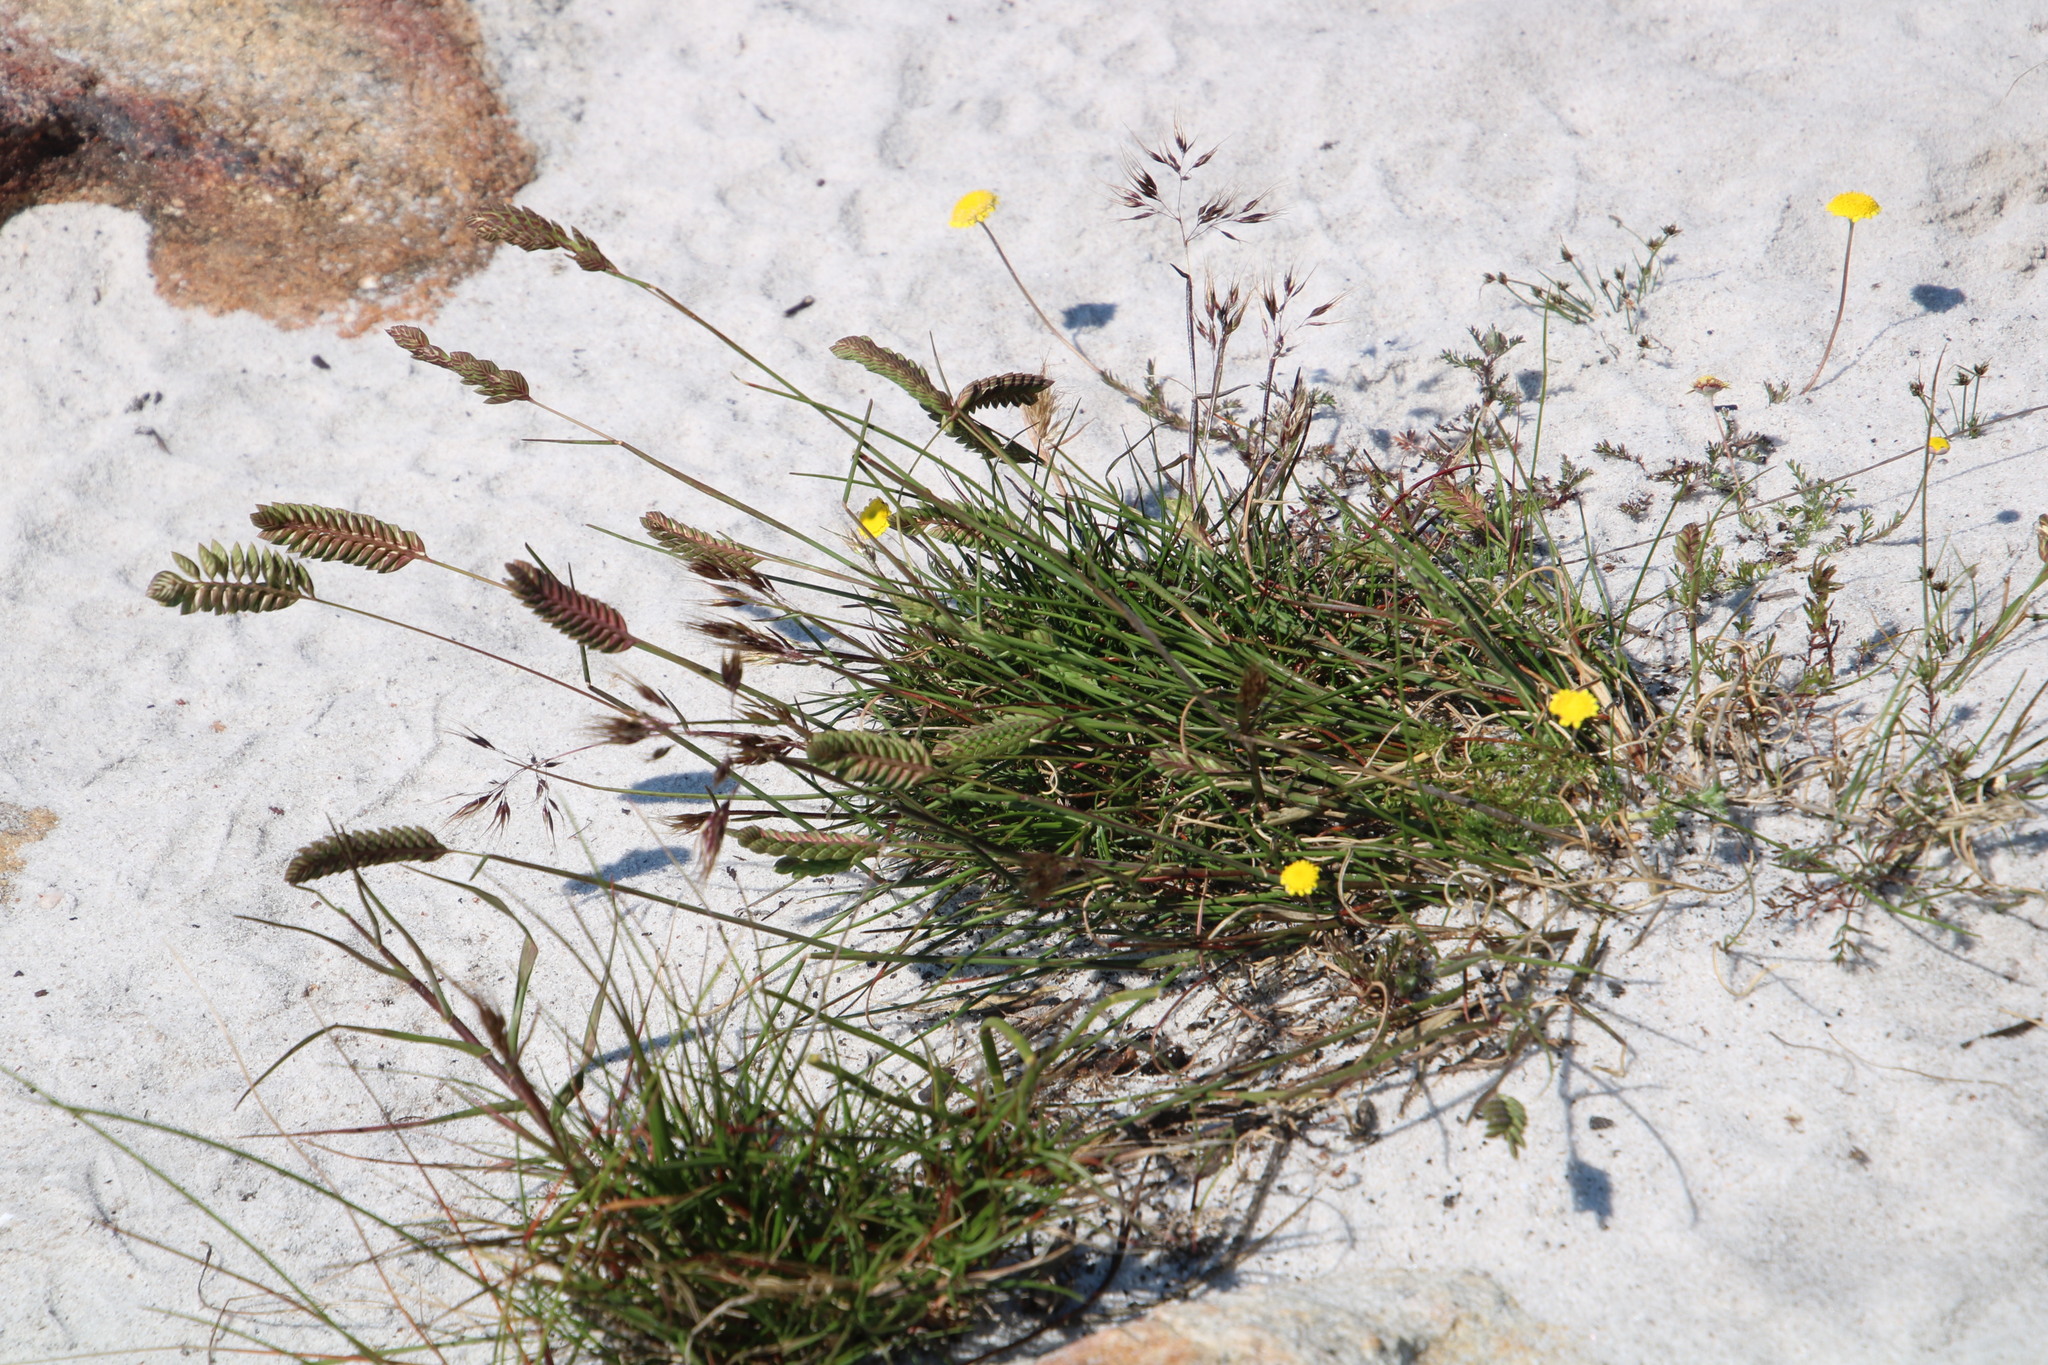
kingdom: Plantae
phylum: Tracheophyta
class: Liliopsida
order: Poales
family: Poaceae
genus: Tribolium
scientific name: Tribolium uniolae
